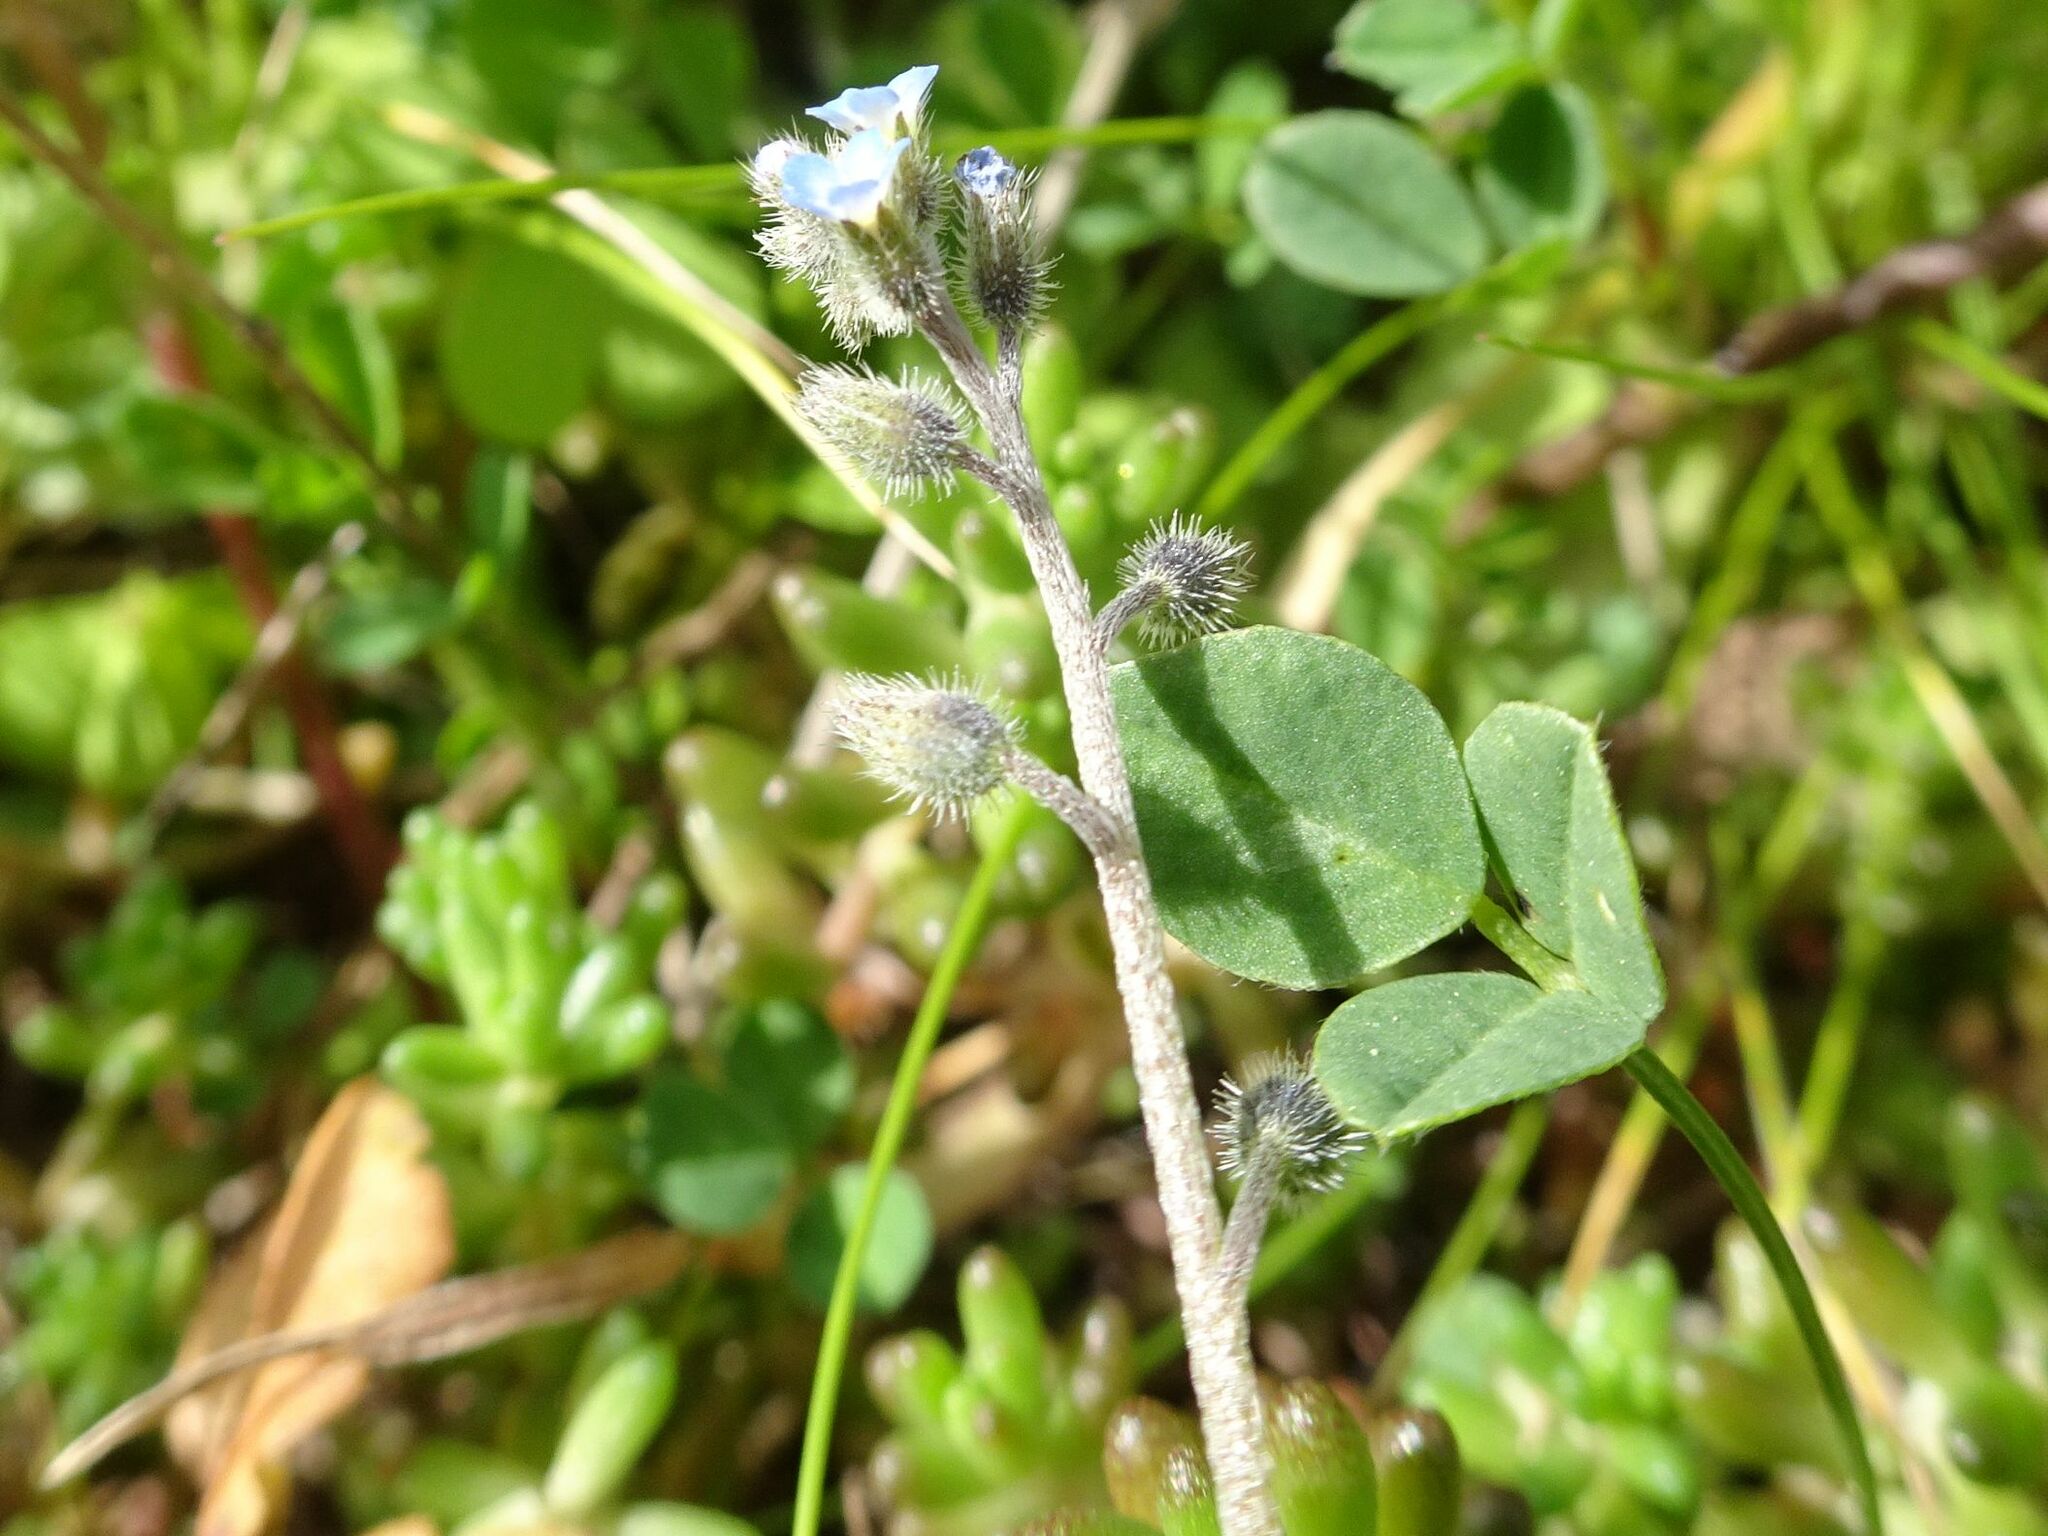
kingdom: Plantae
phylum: Tracheophyta
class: Magnoliopsida
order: Boraginales
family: Boraginaceae
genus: Myosotis
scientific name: Myosotis ramosissima
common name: Early forget-me-not
